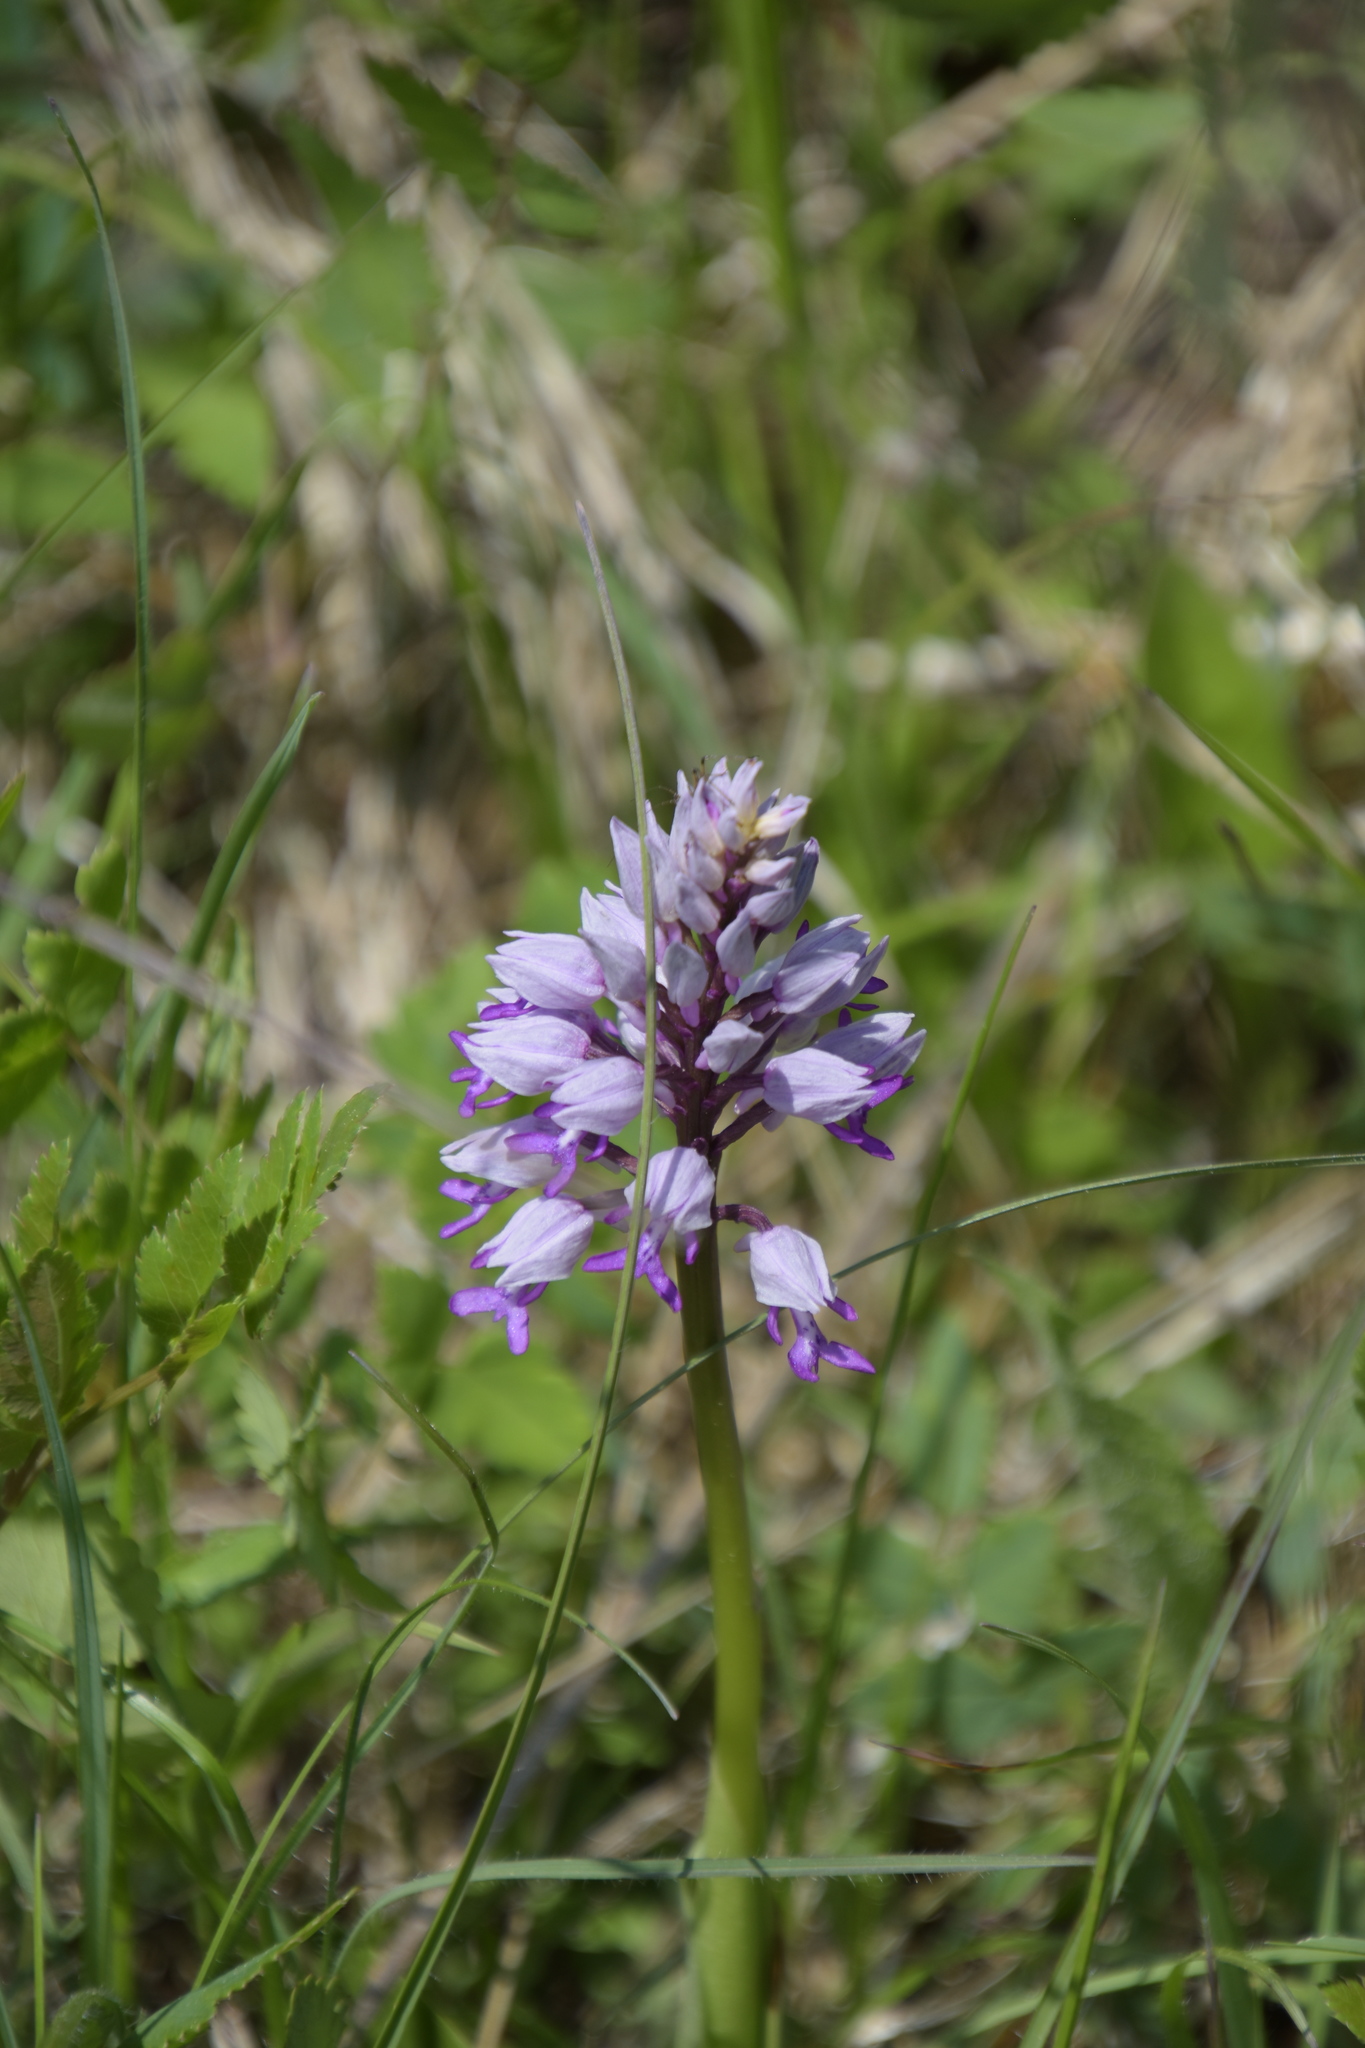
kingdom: Plantae
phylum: Tracheophyta
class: Liliopsida
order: Asparagales
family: Orchidaceae
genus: Orchis
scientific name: Orchis militaris
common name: Military orchid
